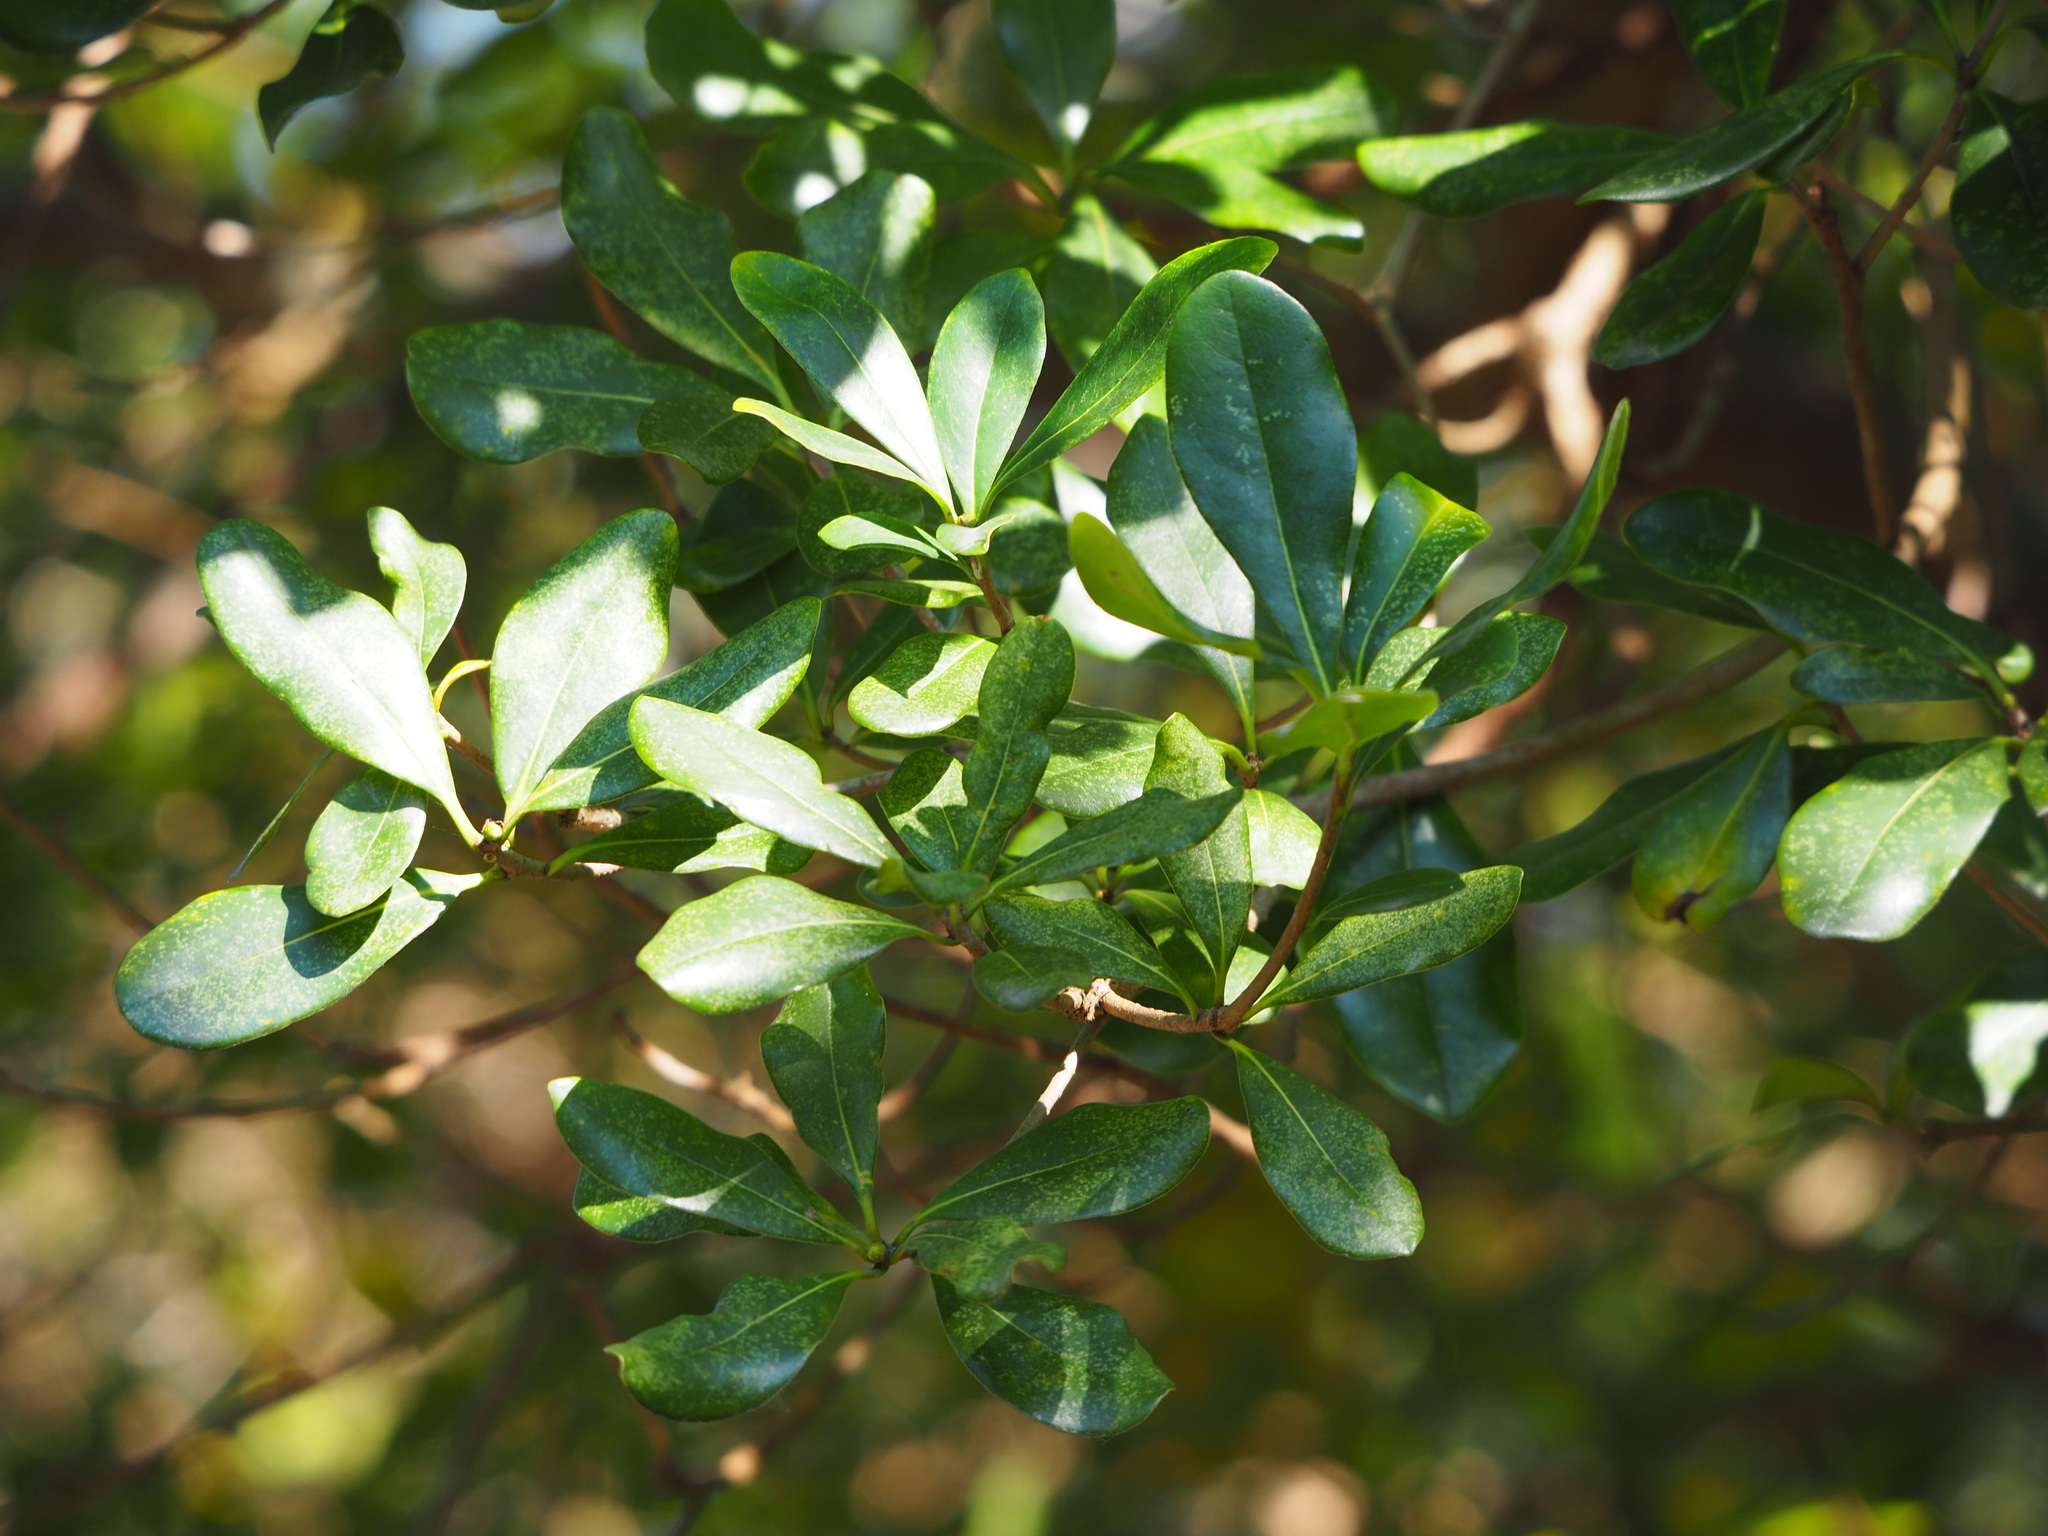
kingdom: Plantae
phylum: Tracheophyta
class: Magnoliopsida
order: Apiales
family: Pittosporaceae
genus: Pittosporum
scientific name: Pittosporum tobira
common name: Japanese cheesewood
